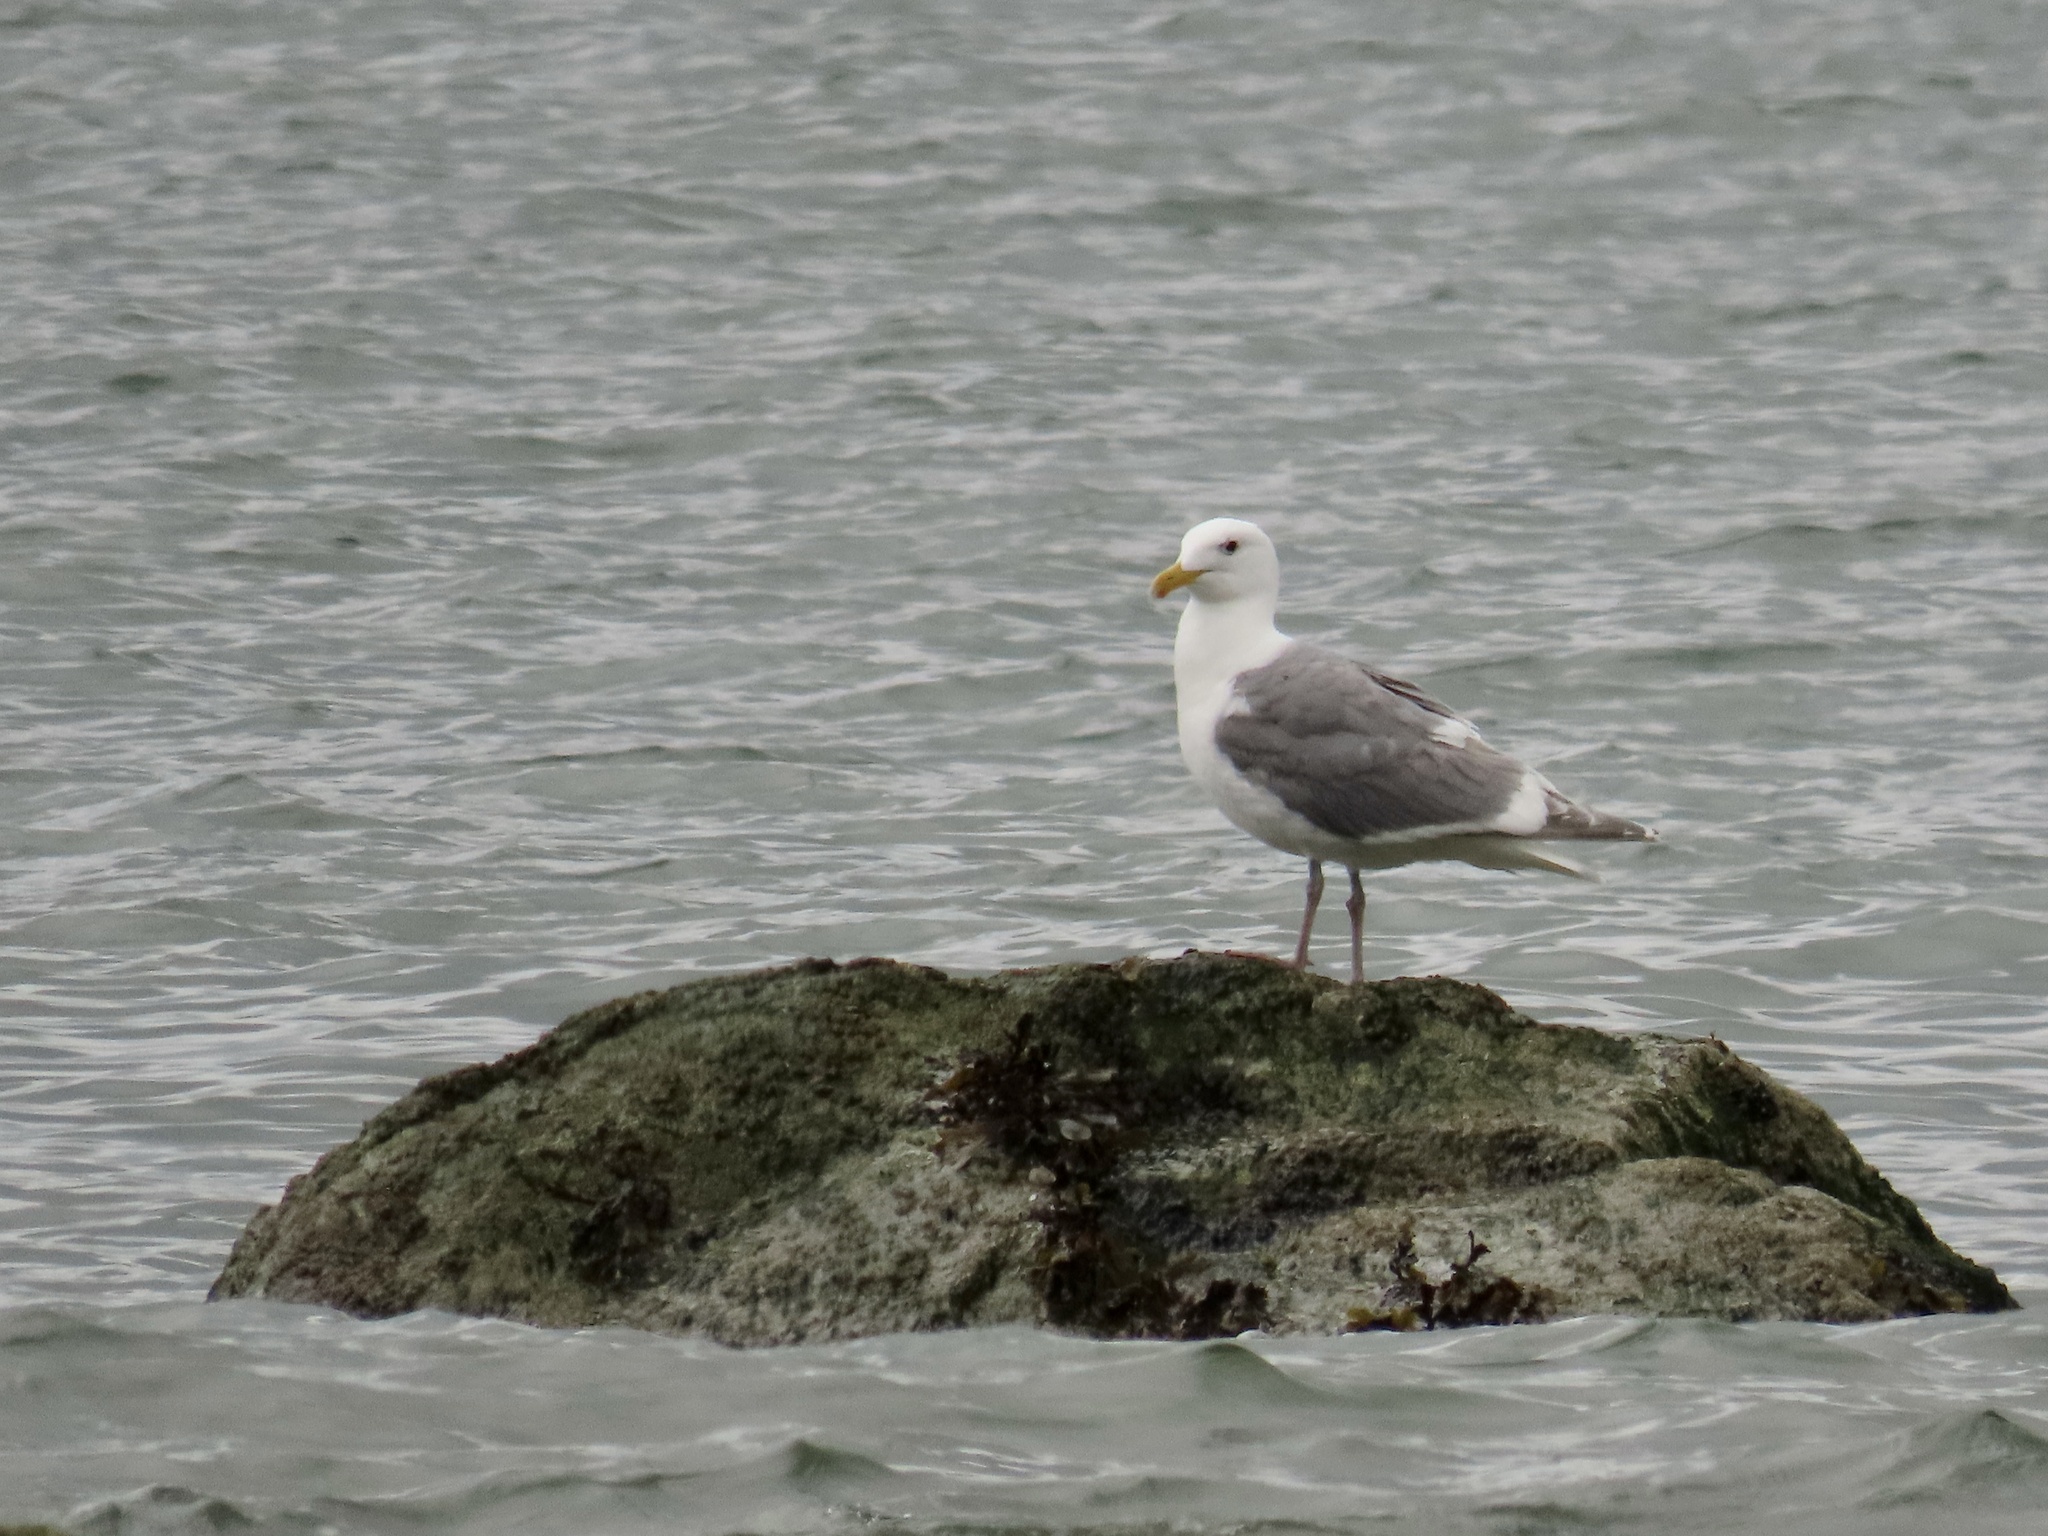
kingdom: Animalia
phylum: Chordata
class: Aves
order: Charadriiformes
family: Laridae
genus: Larus
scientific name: Larus
